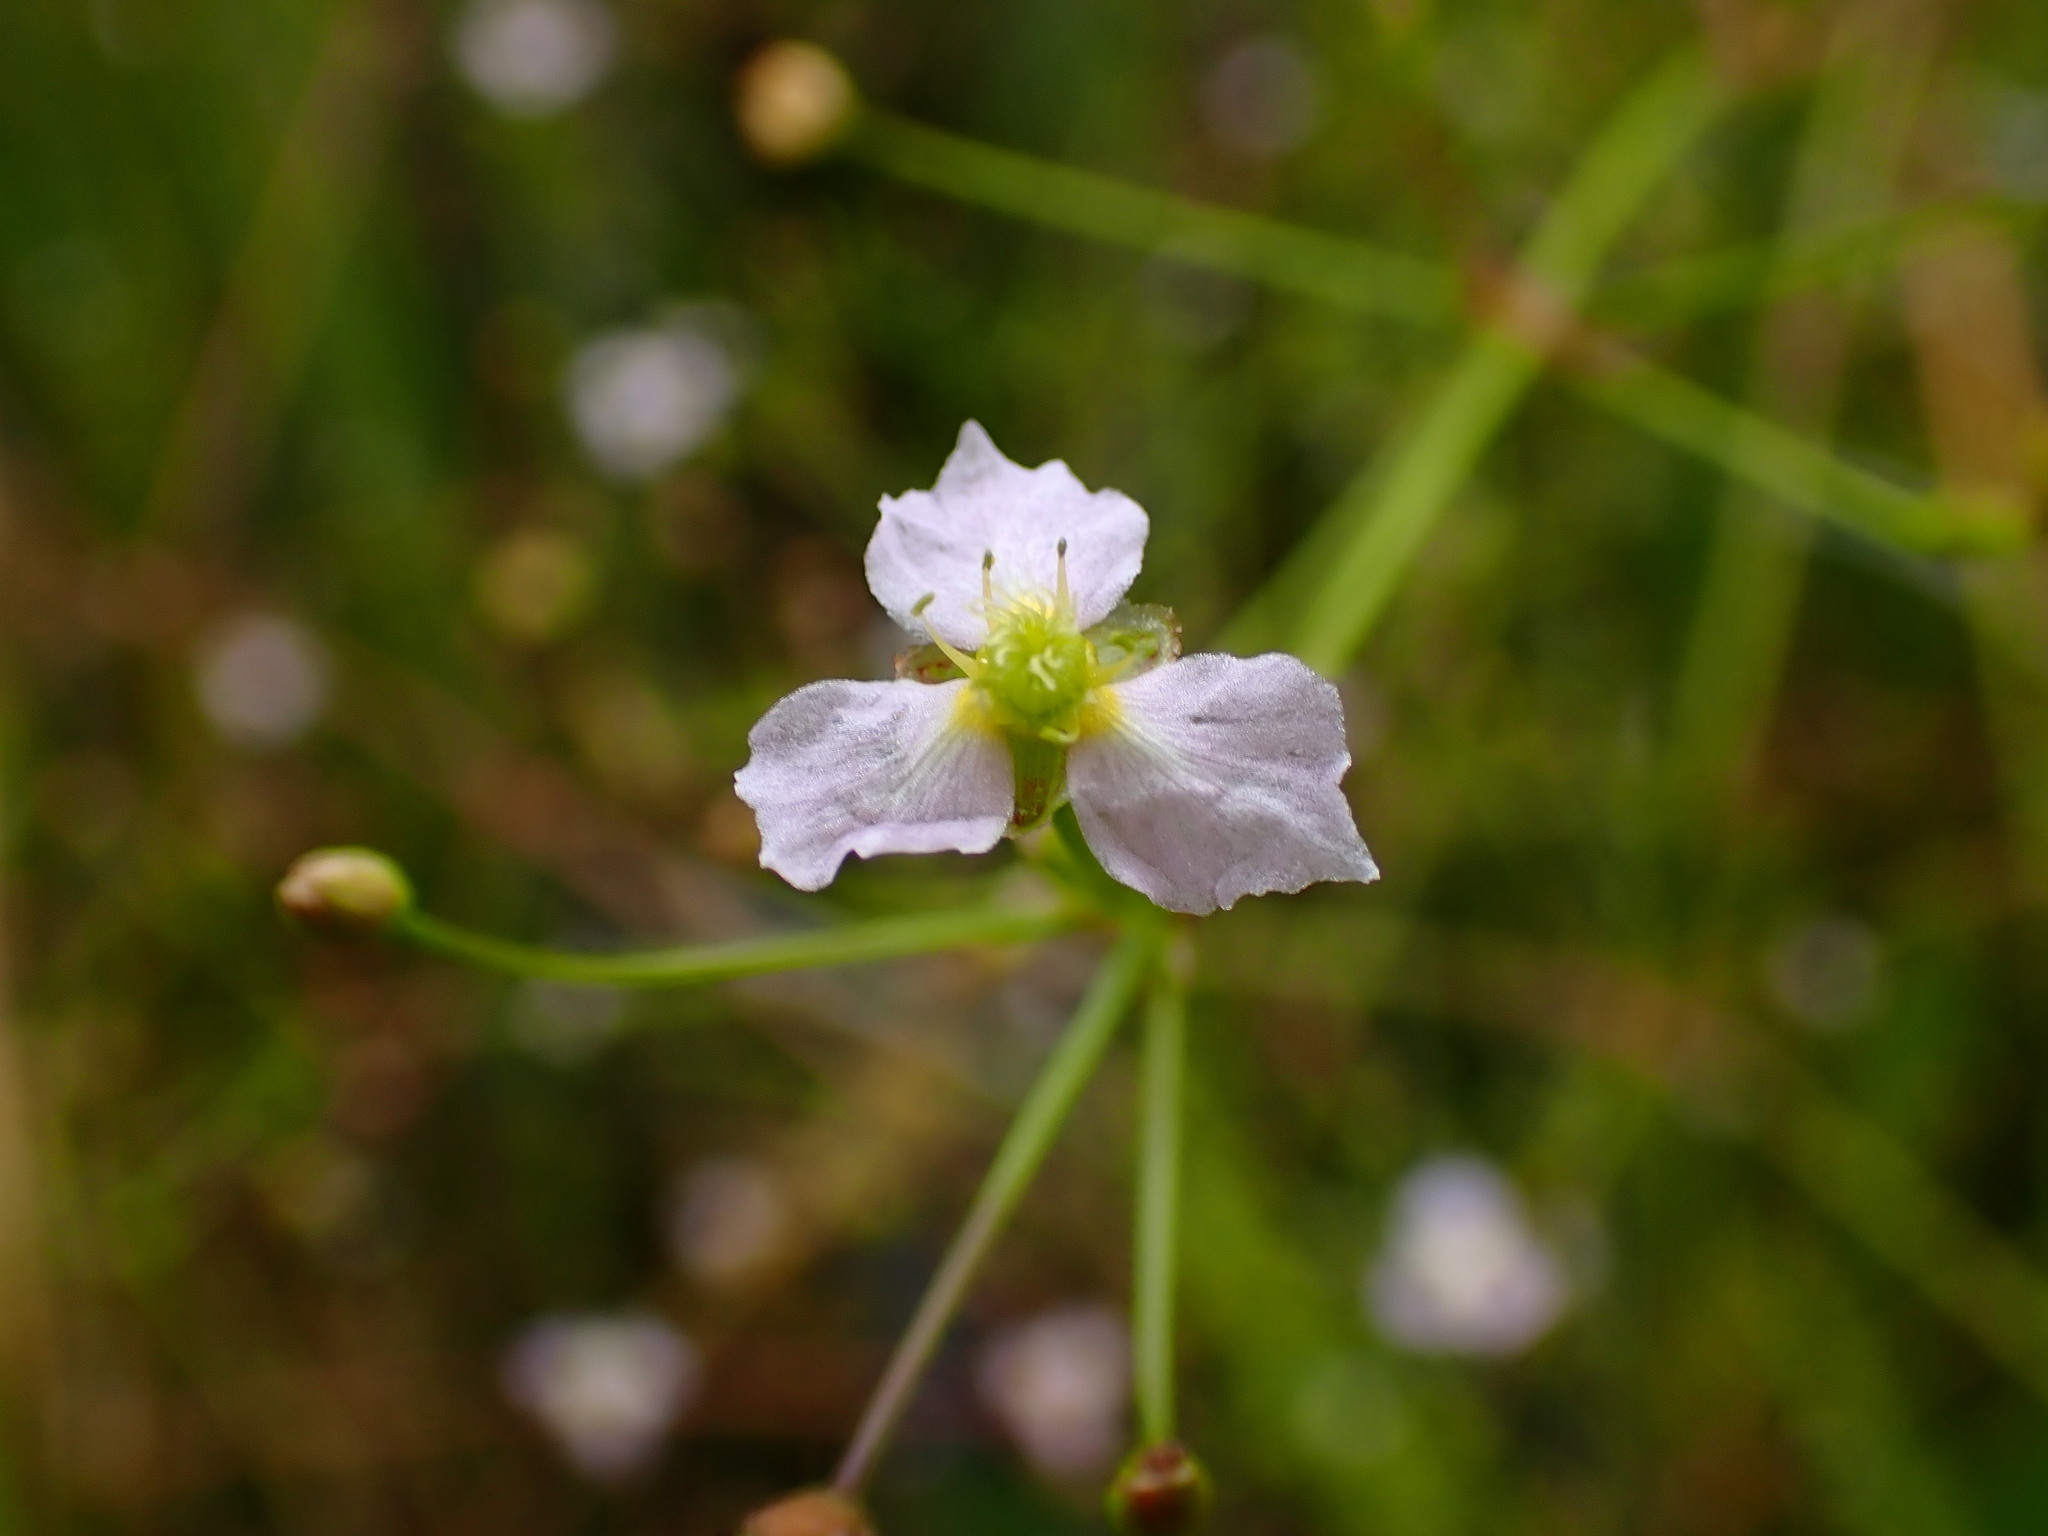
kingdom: Plantae
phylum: Tracheophyta
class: Liliopsida
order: Alismatales
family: Alismataceae
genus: Alisma
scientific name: Alisma lanceolatum
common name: Narrow-leaved water-plantain
